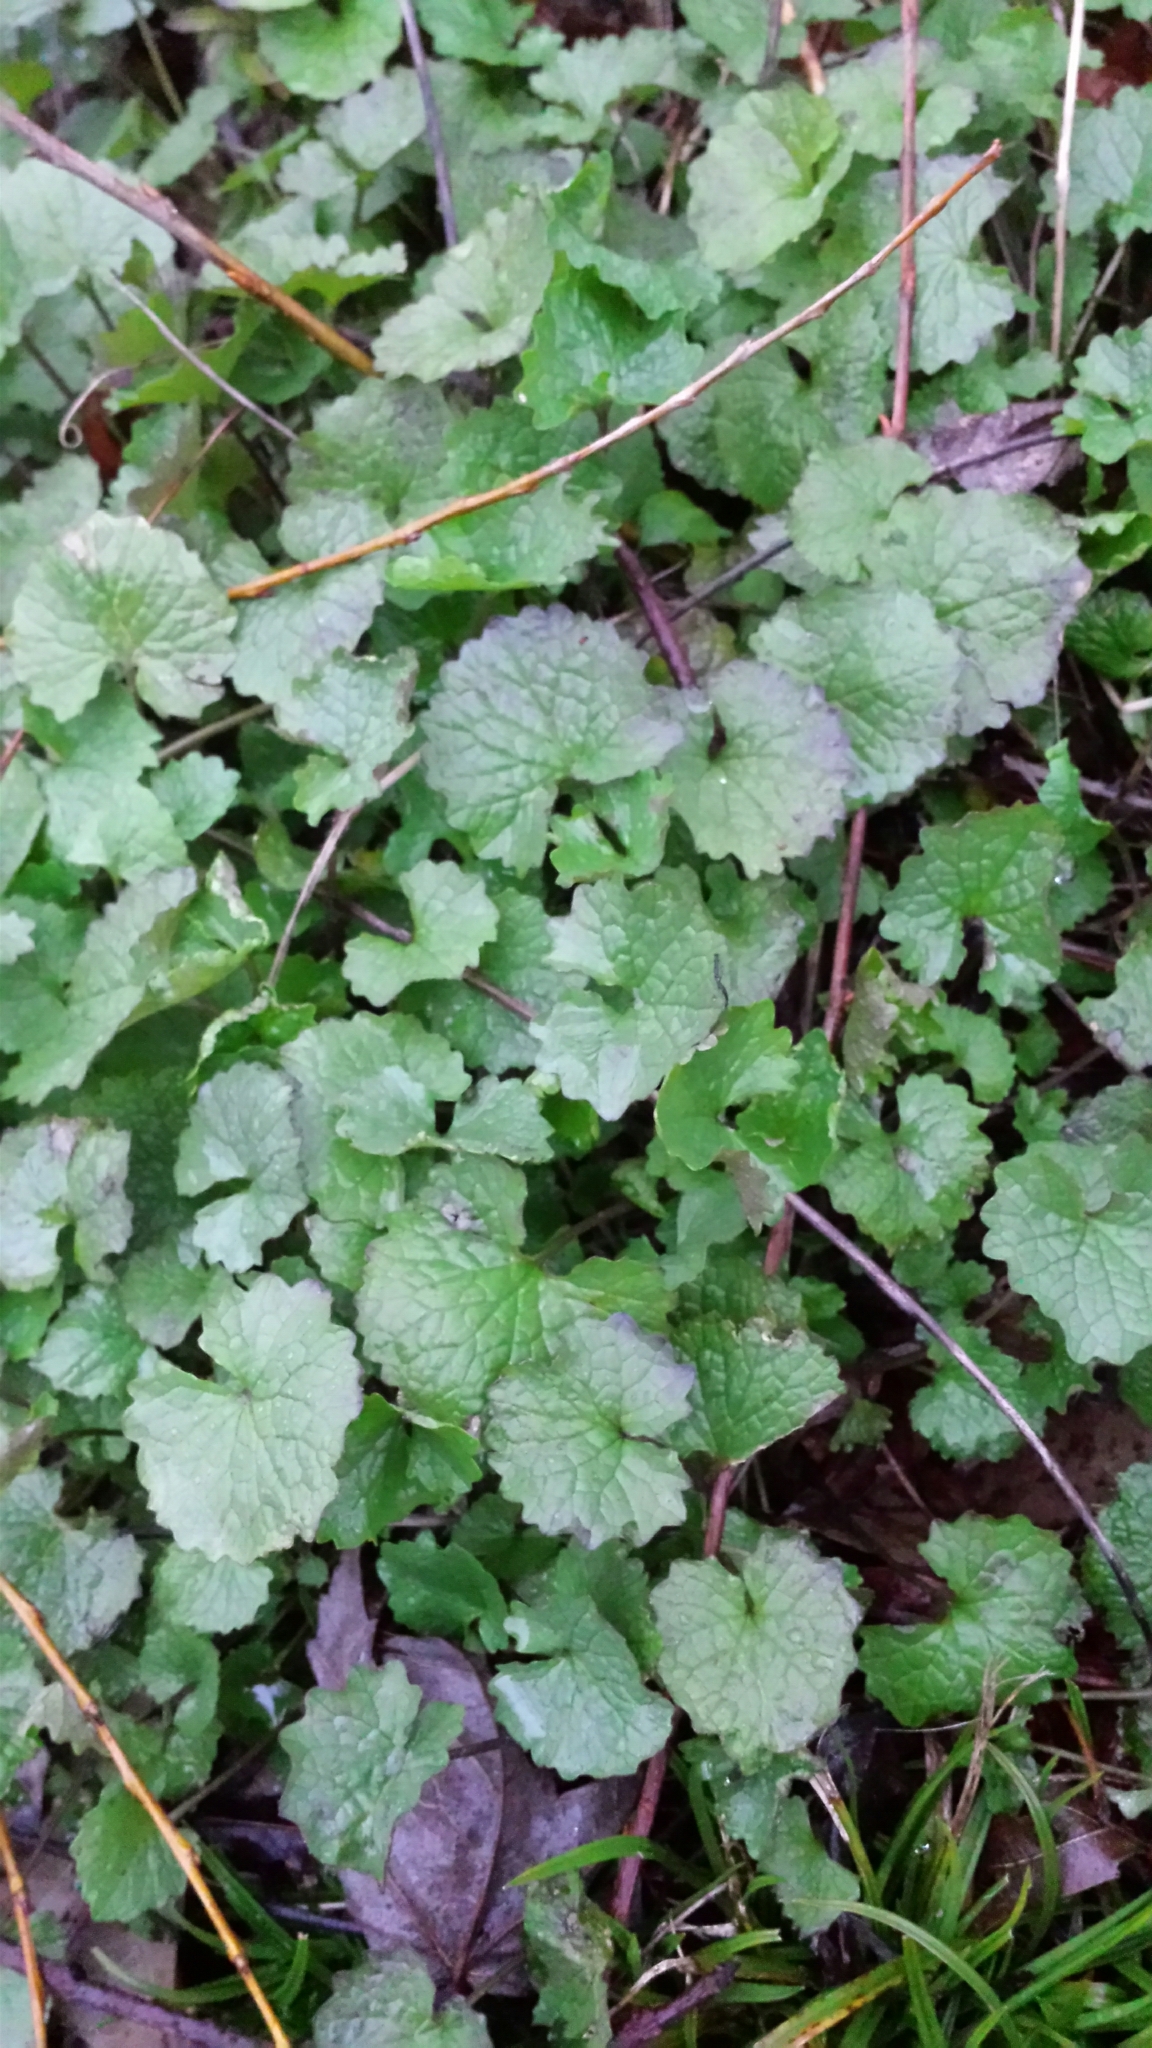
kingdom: Plantae
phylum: Tracheophyta
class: Magnoliopsida
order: Brassicales
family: Brassicaceae
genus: Alliaria
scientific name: Alliaria petiolata
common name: Garlic mustard
